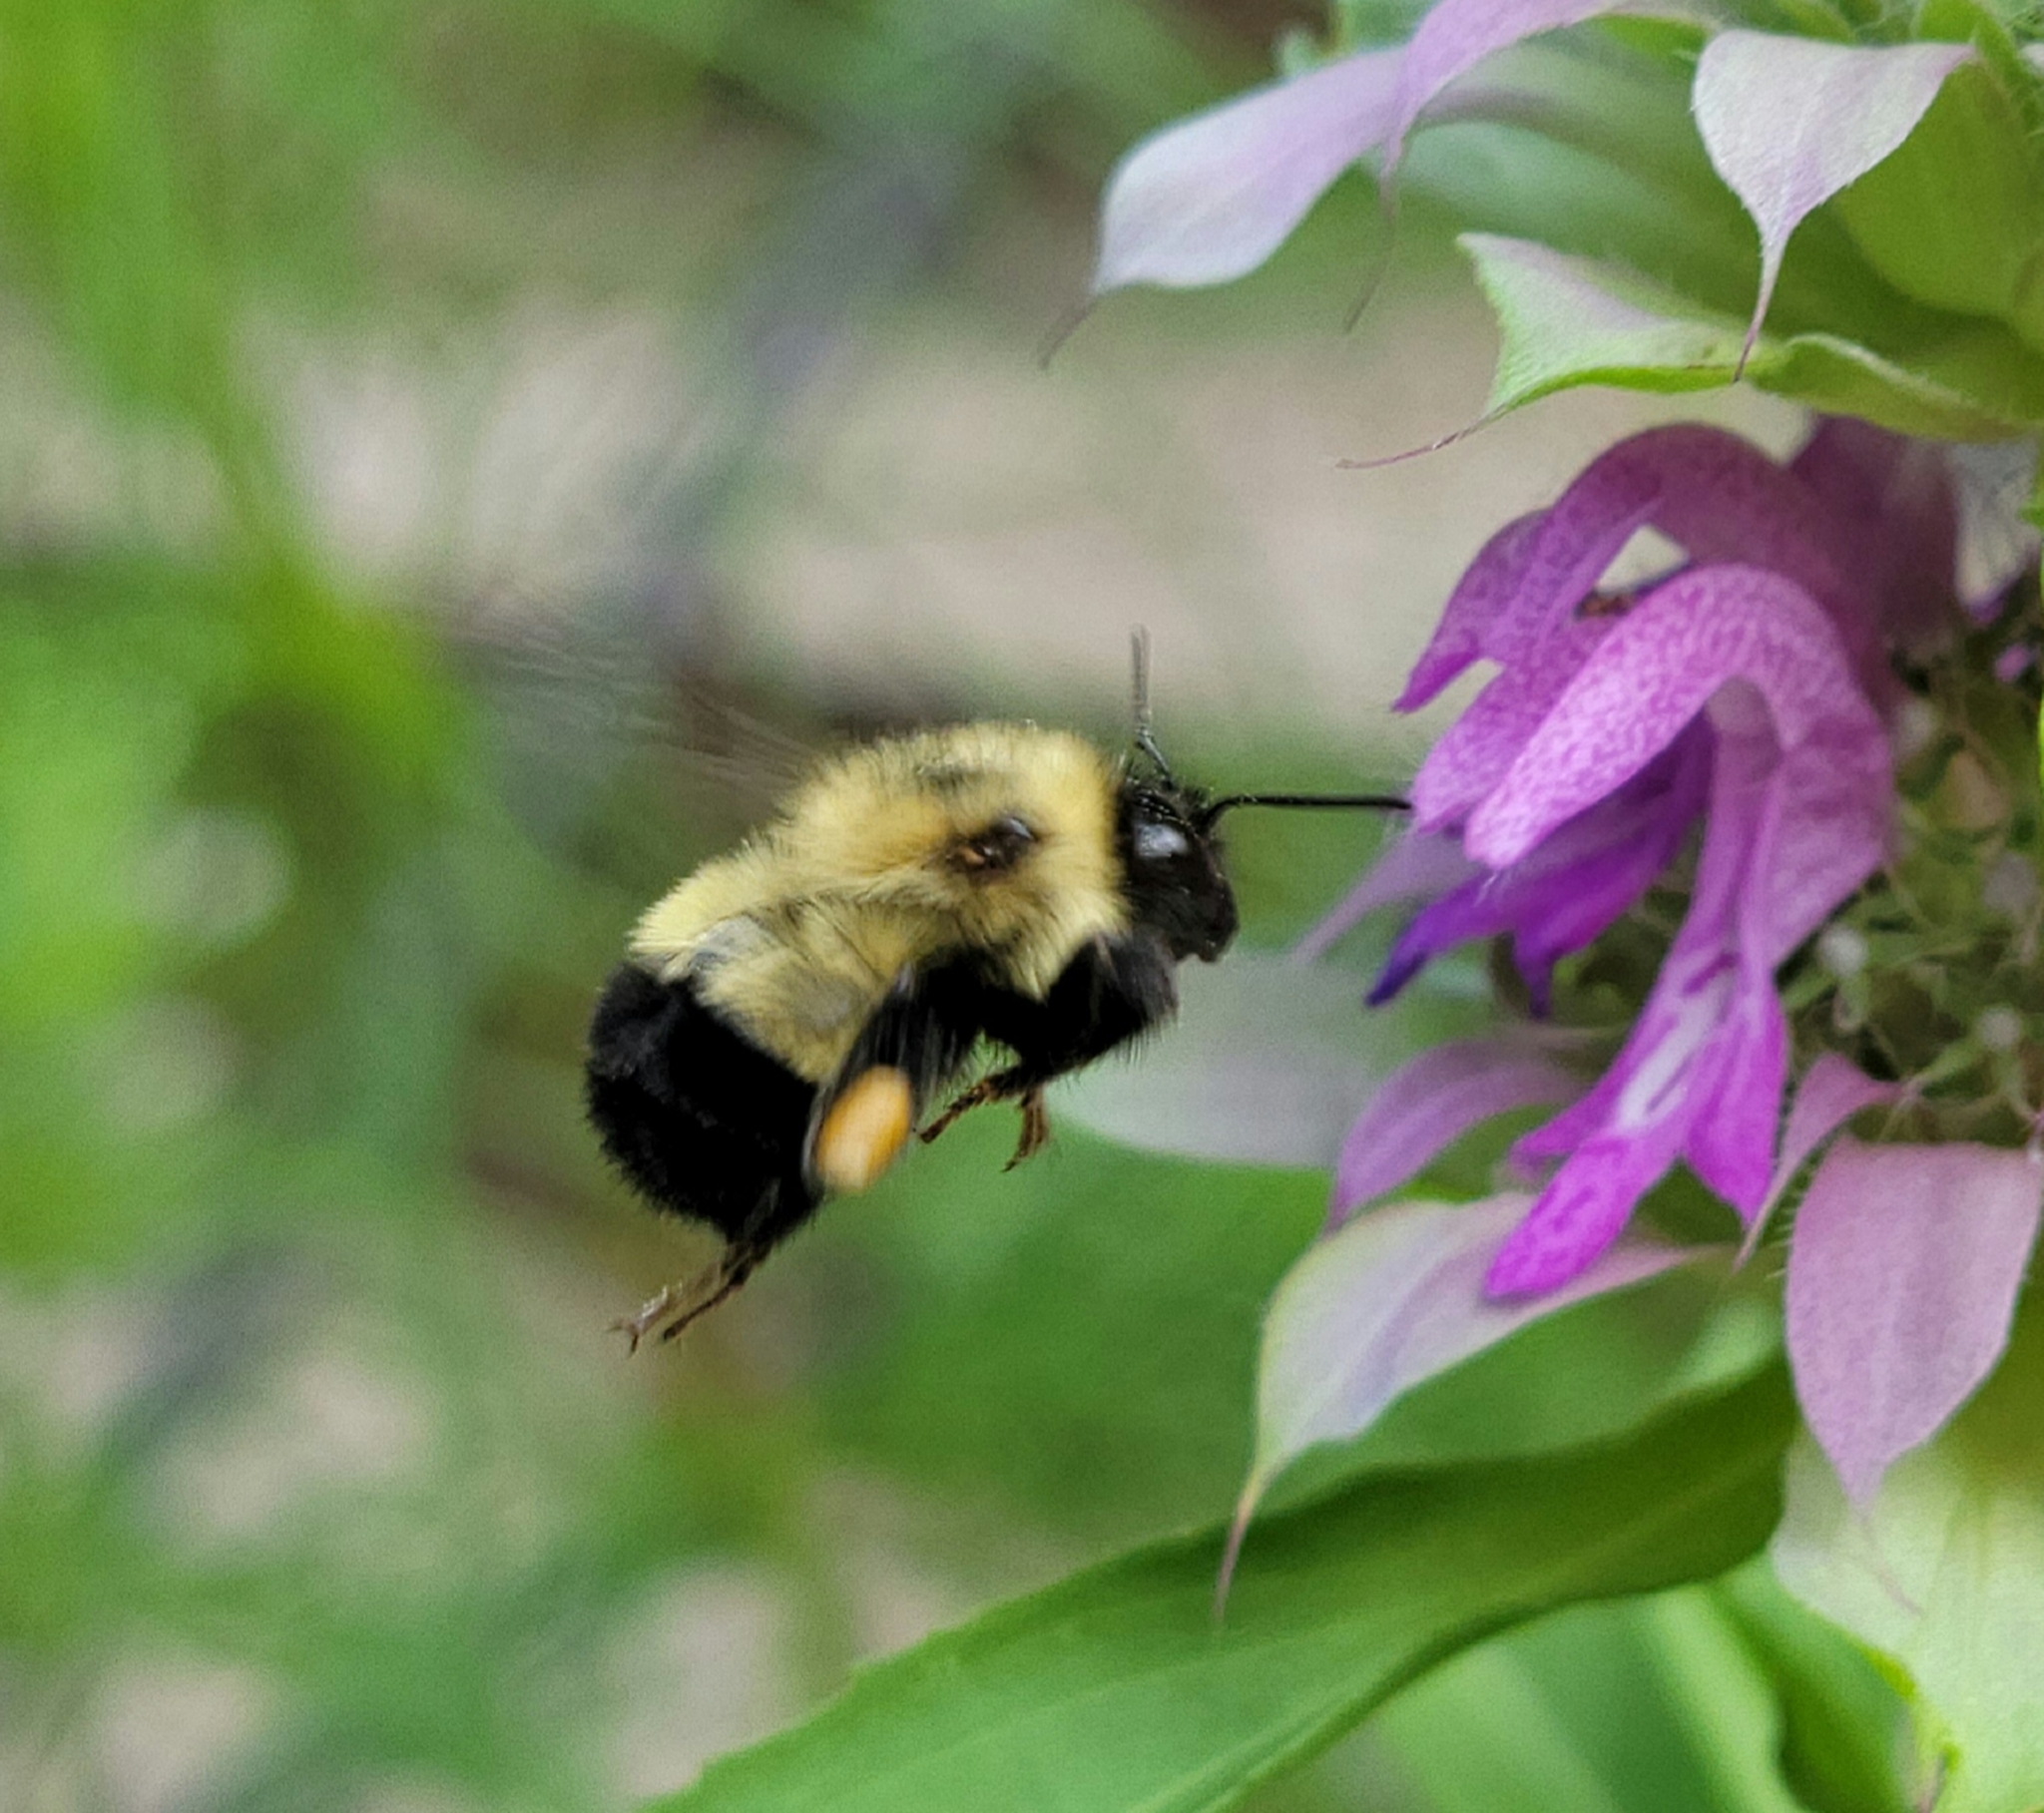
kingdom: Animalia
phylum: Arthropoda
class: Insecta
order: Hymenoptera
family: Apidae
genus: Pyrobombus
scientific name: Pyrobombus
